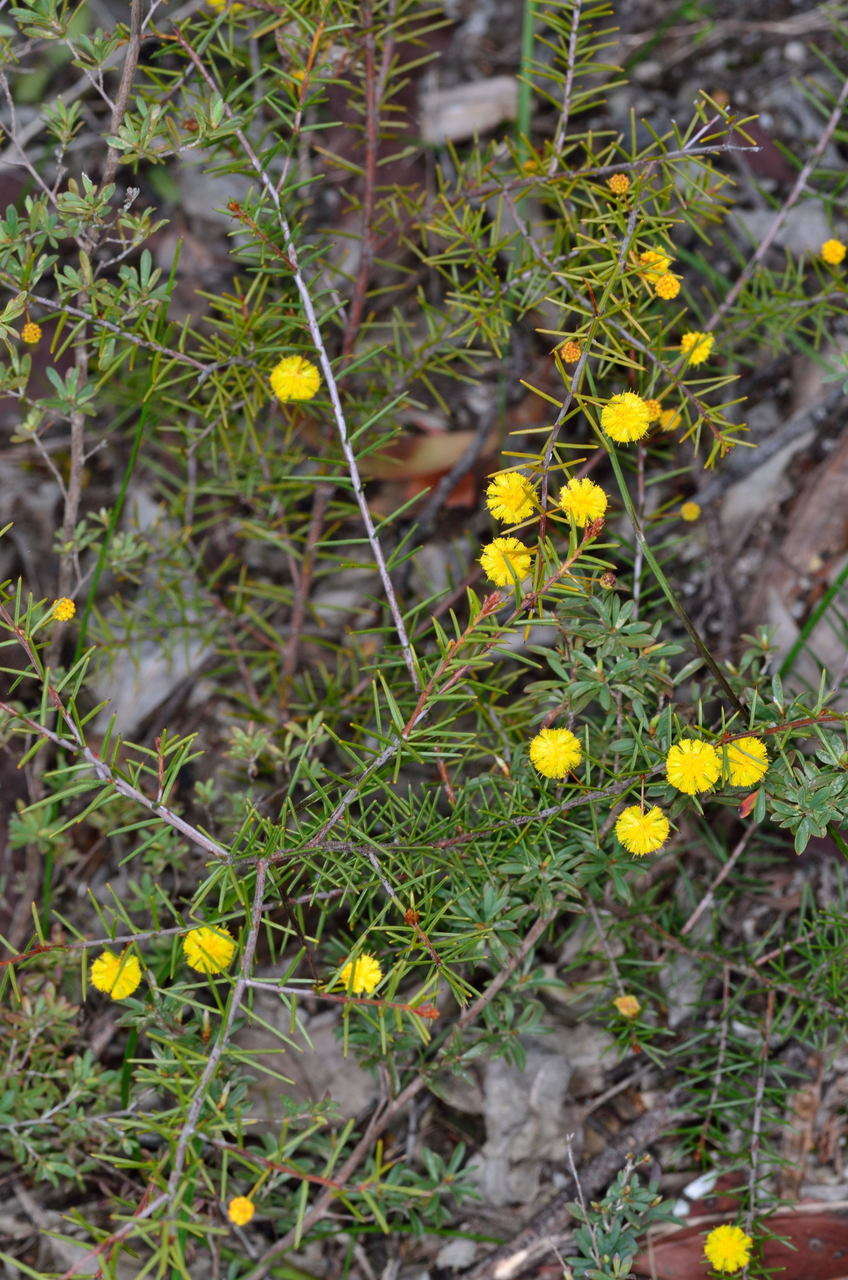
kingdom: Plantae
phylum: Tracheophyta
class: Magnoliopsida
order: Fabales
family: Fabaceae
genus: Acacia
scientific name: Acacia brownii
